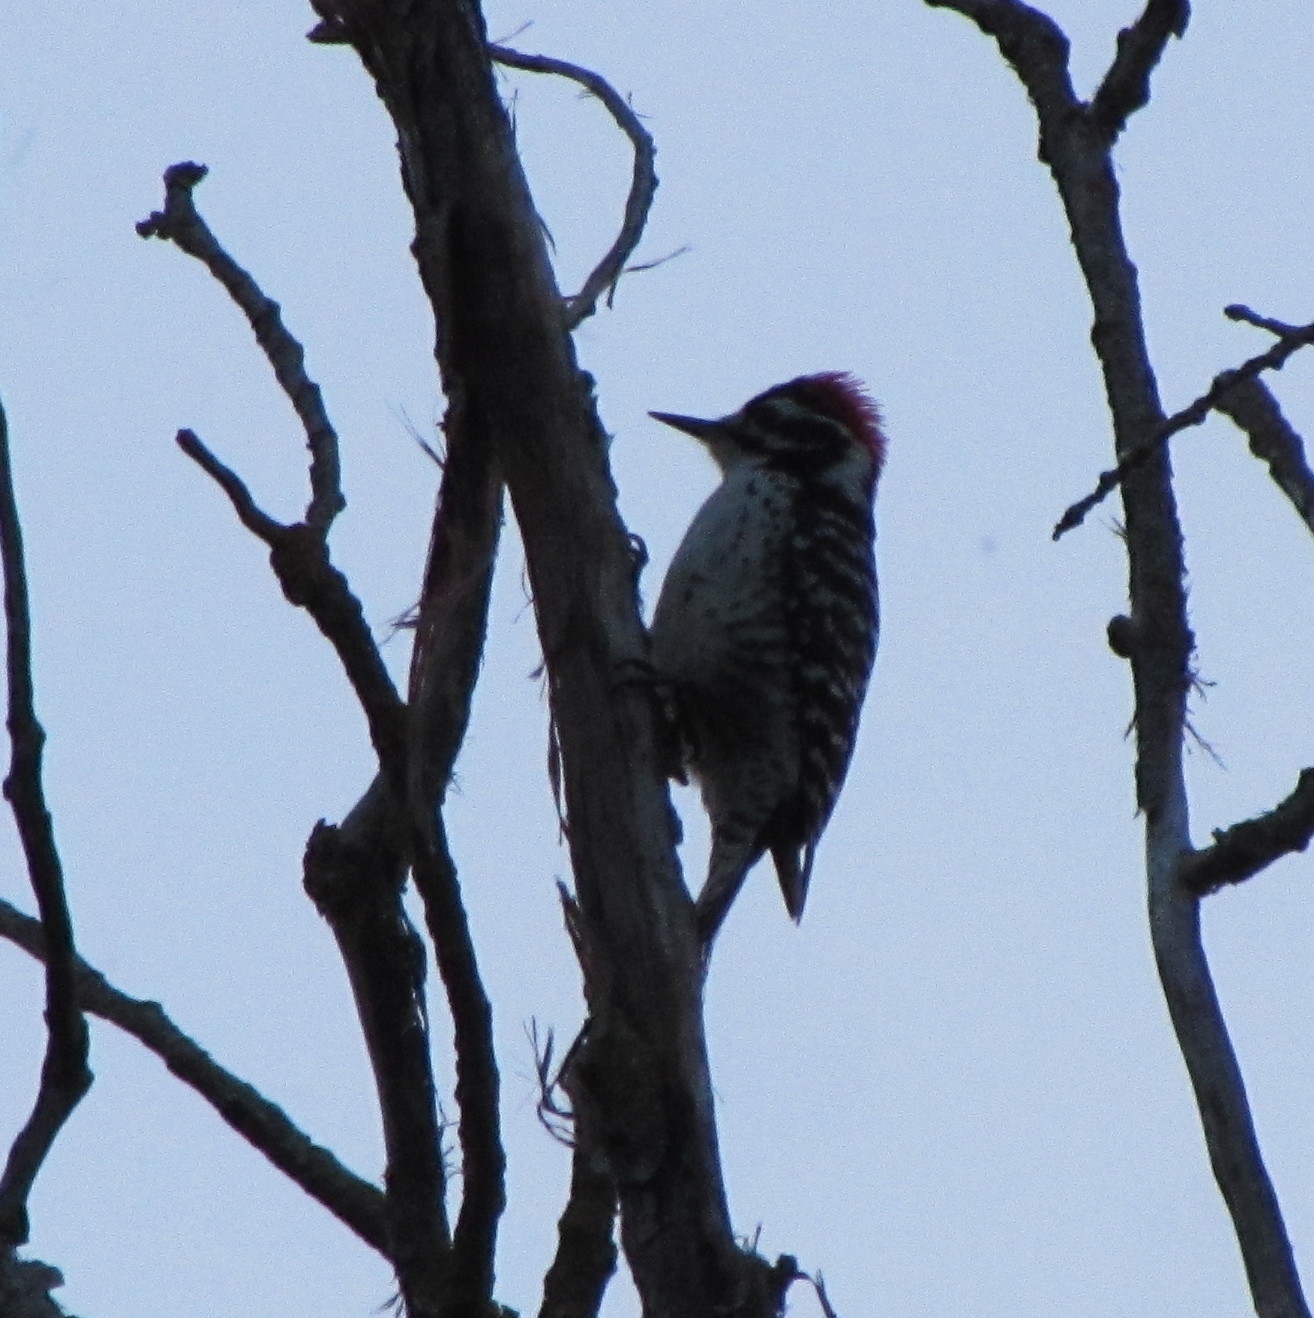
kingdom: Animalia
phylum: Chordata
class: Aves
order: Piciformes
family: Picidae
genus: Dryobates
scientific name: Dryobates nuttallii
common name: Nuttall's woodpecker
